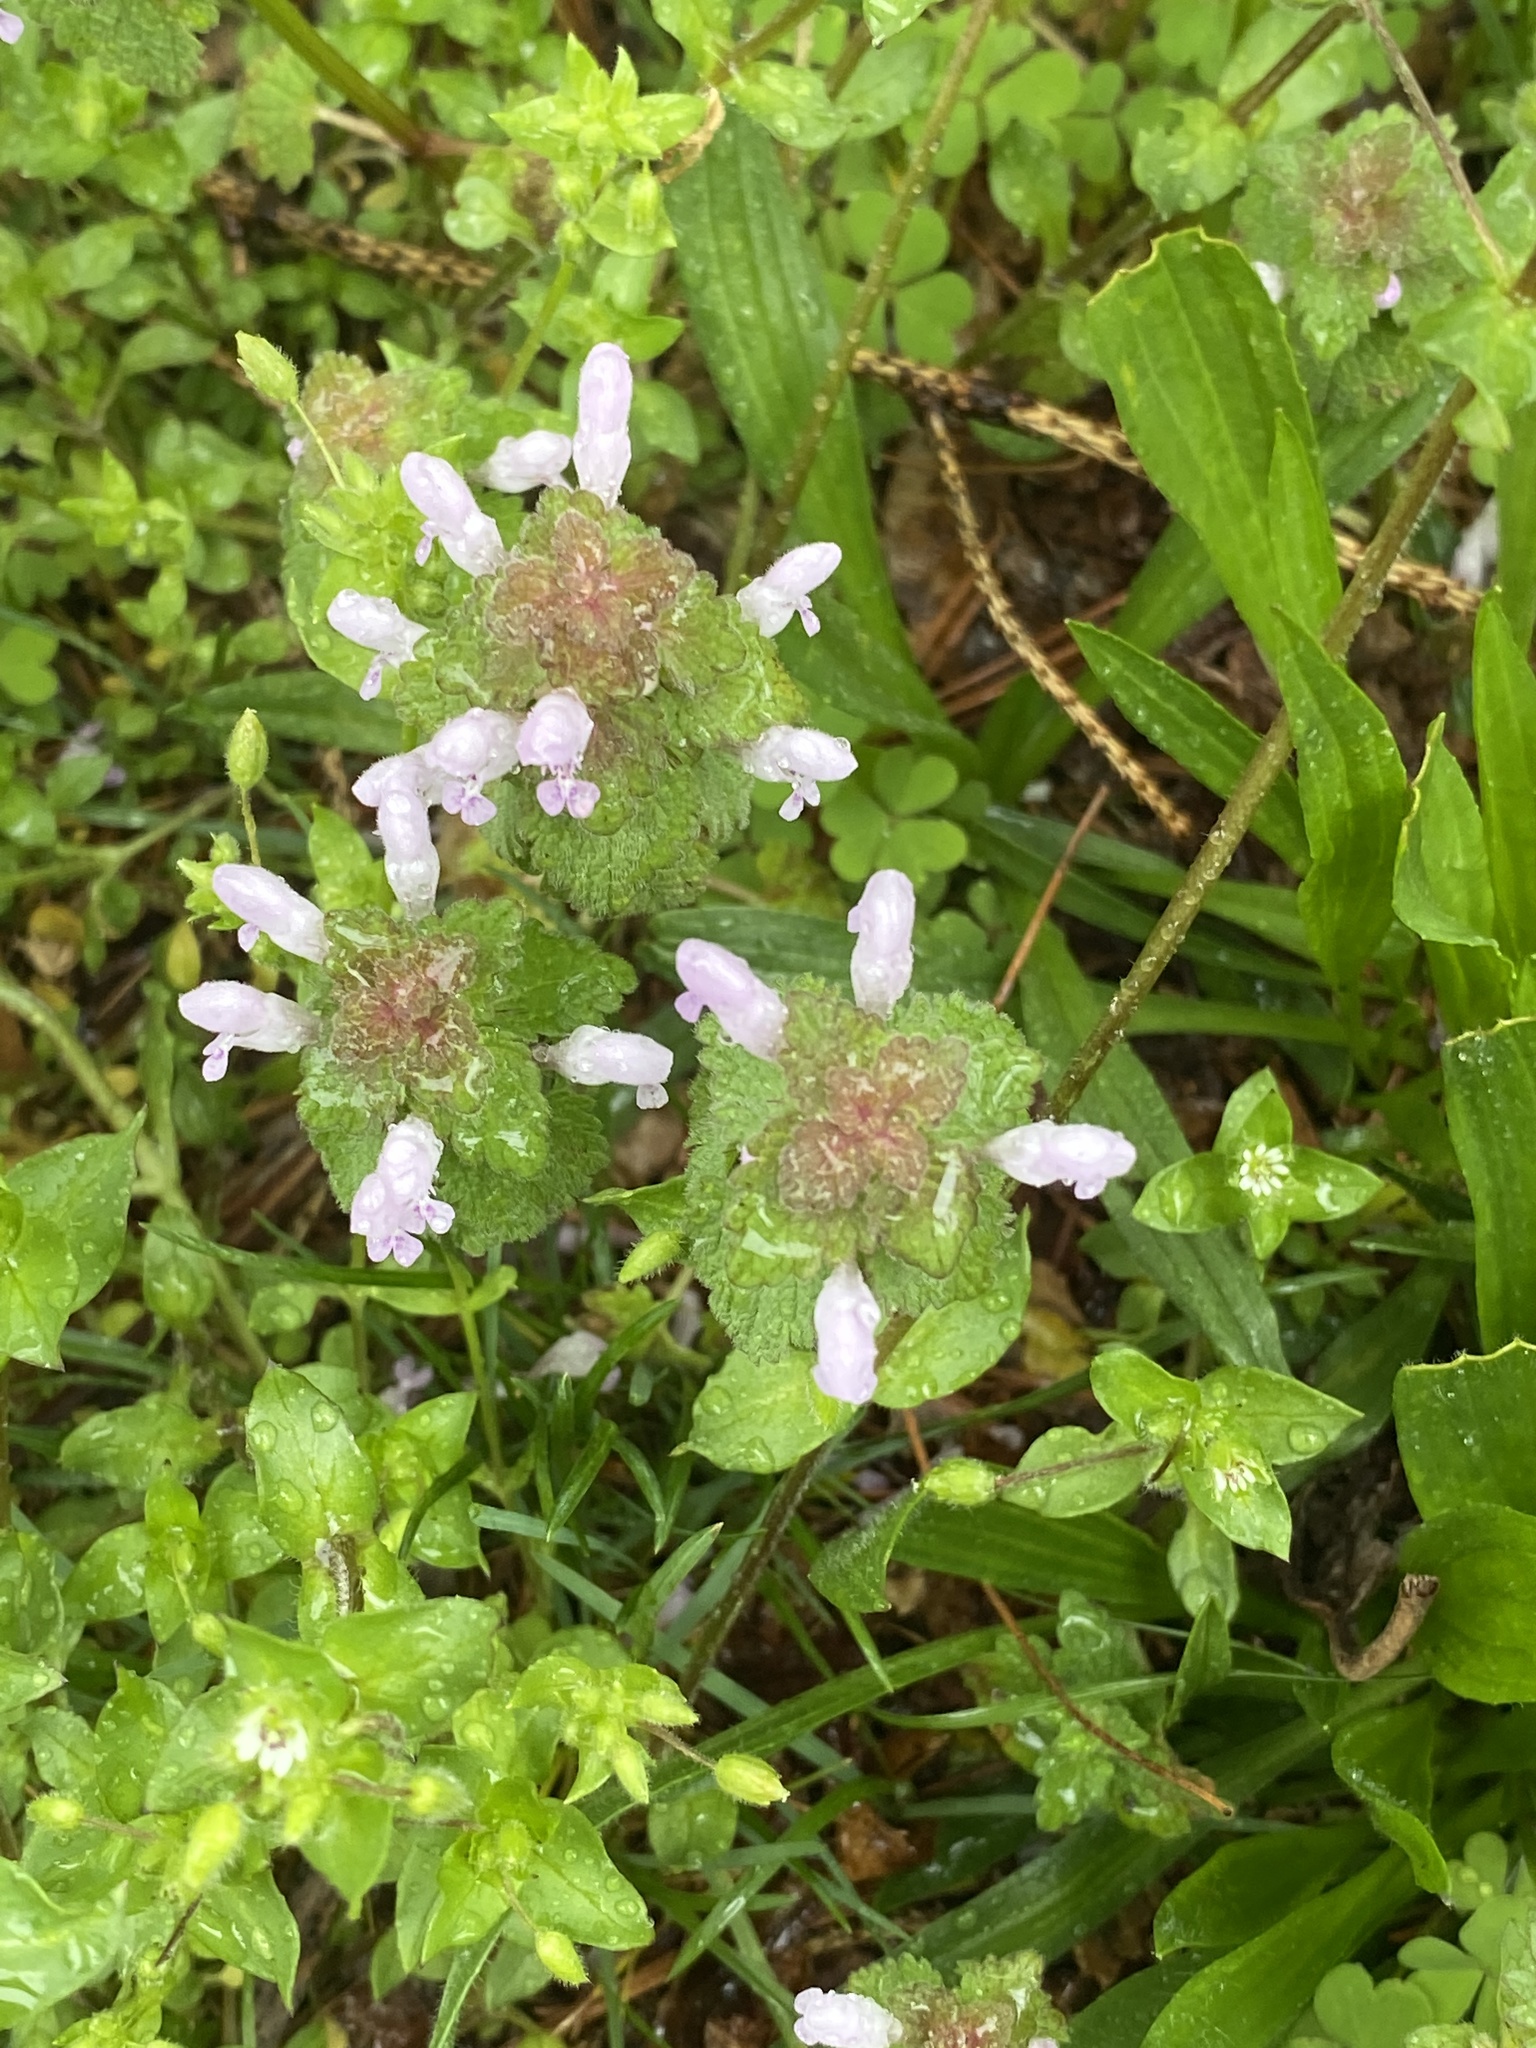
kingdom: Plantae
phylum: Tracheophyta
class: Magnoliopsida
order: Lamiales
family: Lamiaceae
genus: Lamium
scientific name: Lamium purpureum
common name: Red dead-nettle
